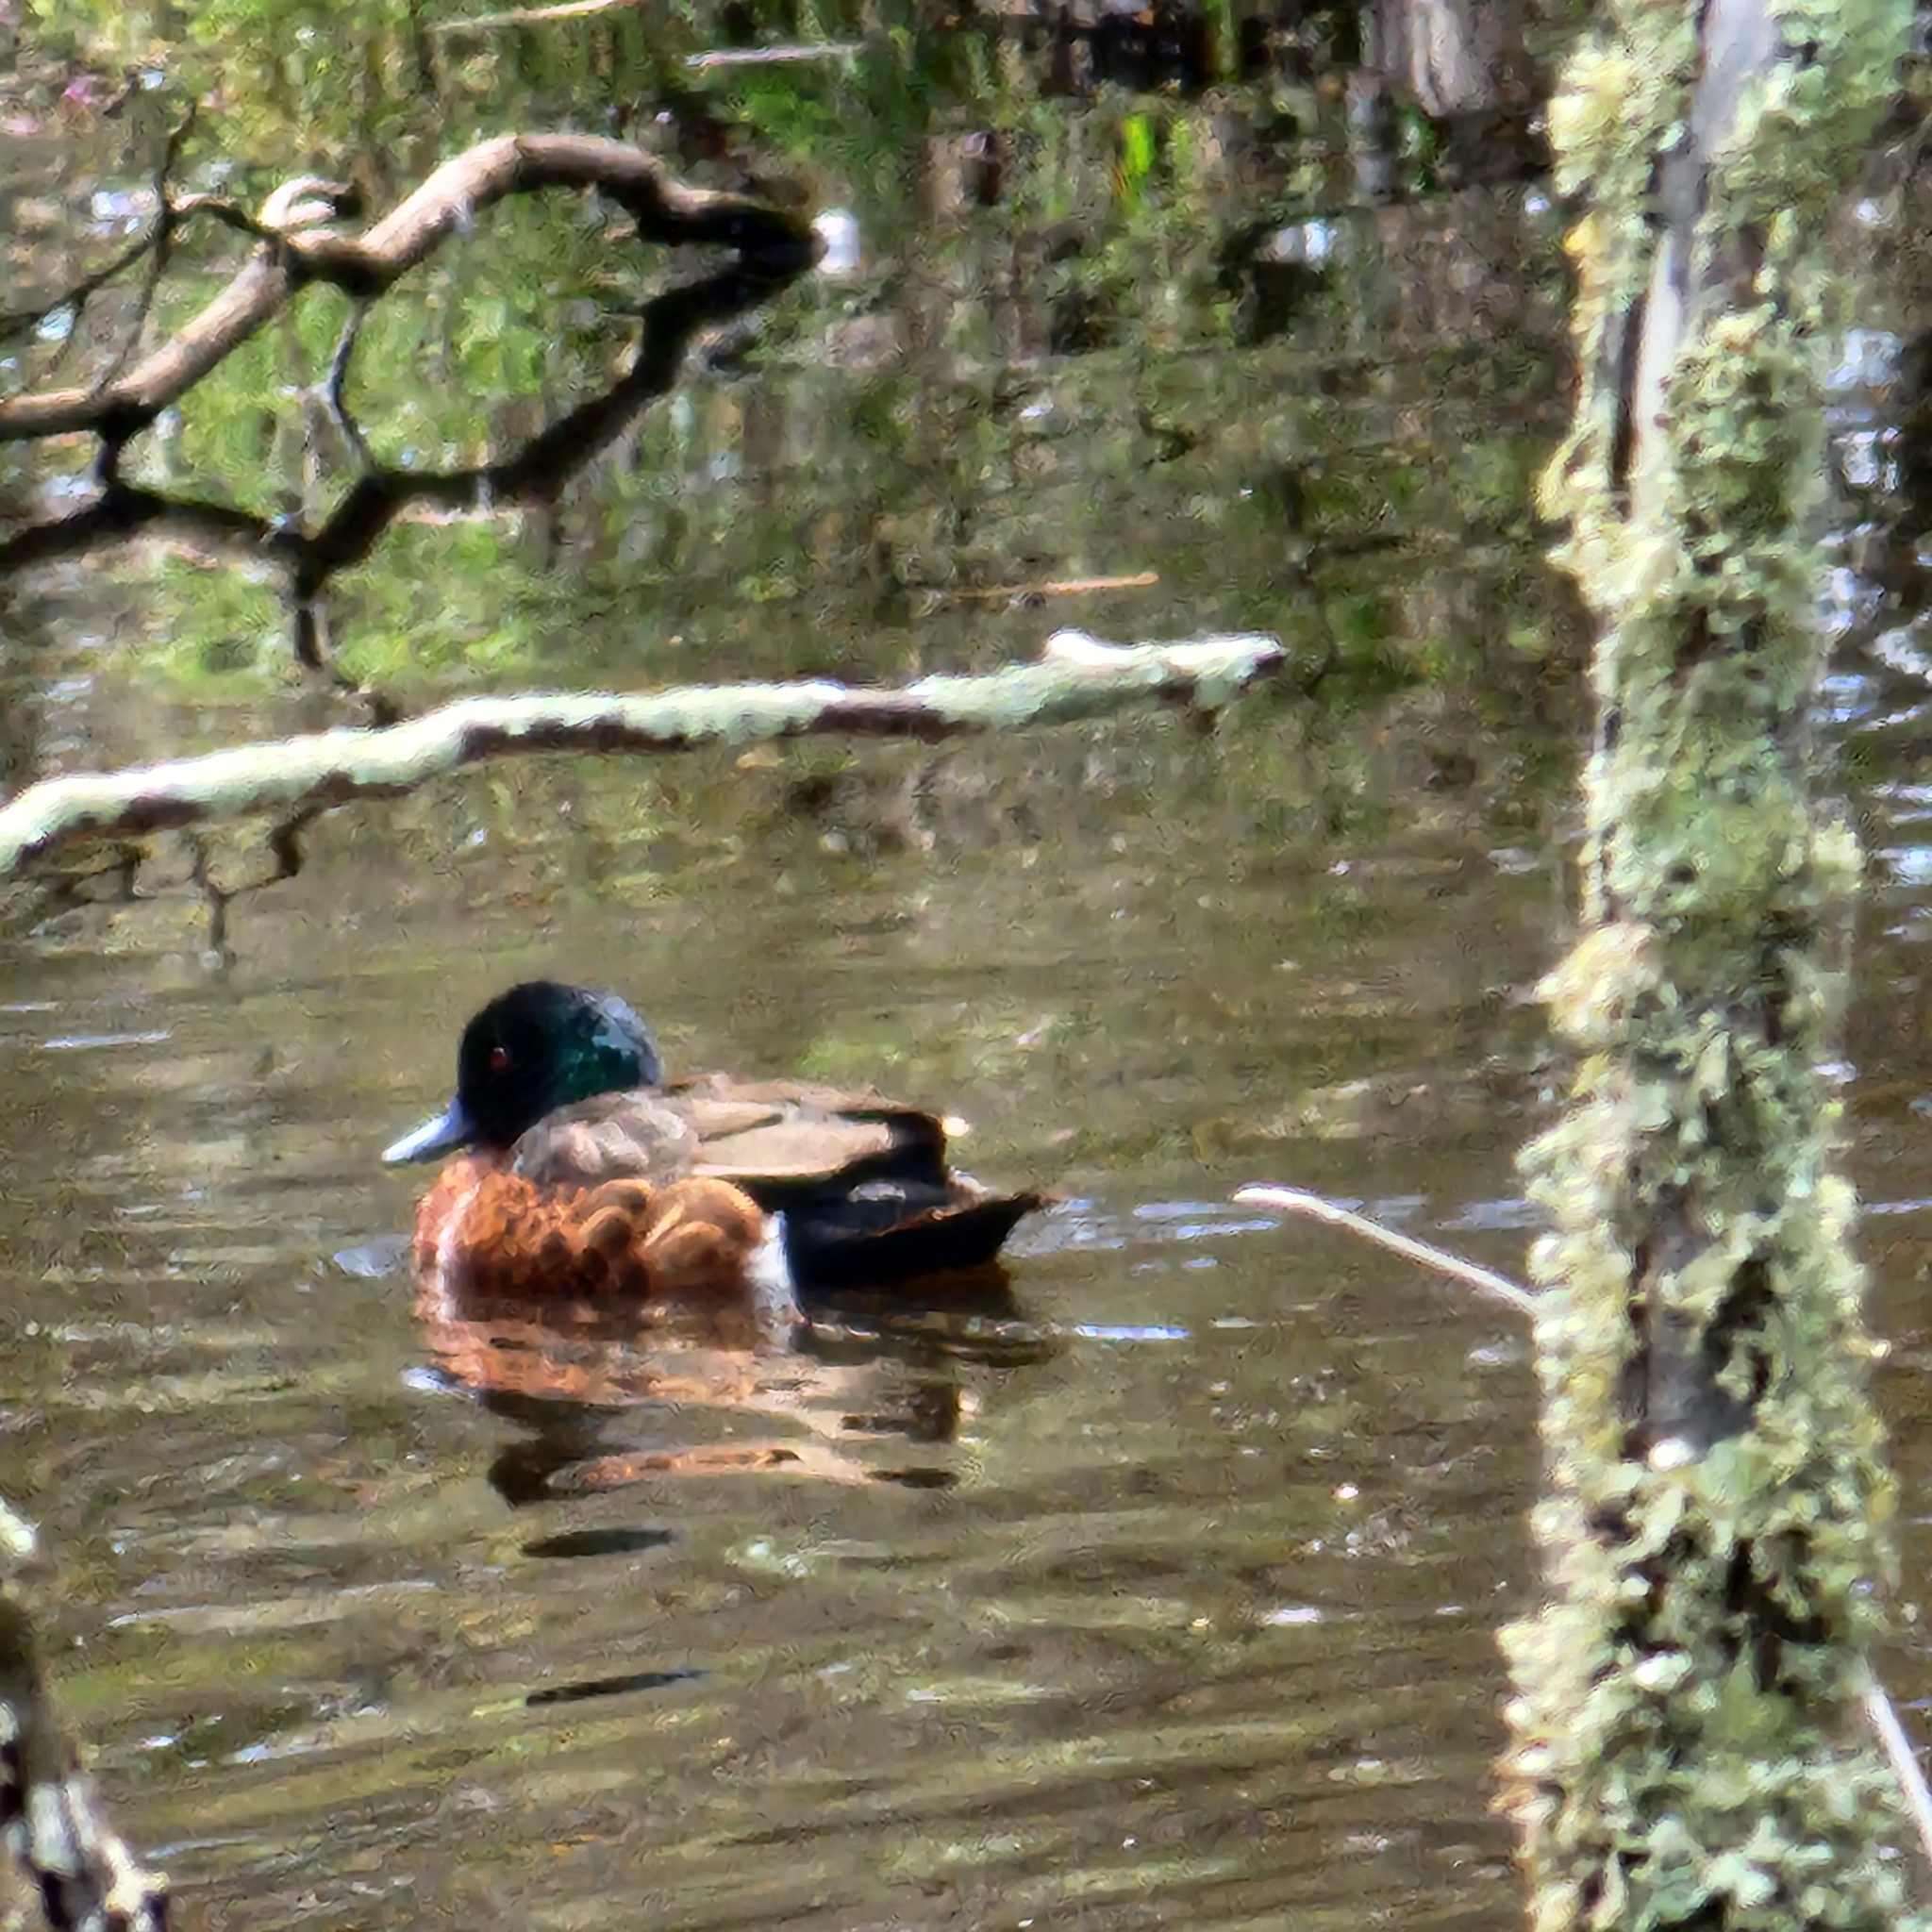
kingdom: Animalia
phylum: Chordata
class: Aves
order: Anseriformes
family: Anatidae
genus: Anas
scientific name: Anas castanea
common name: Chestnut teal
